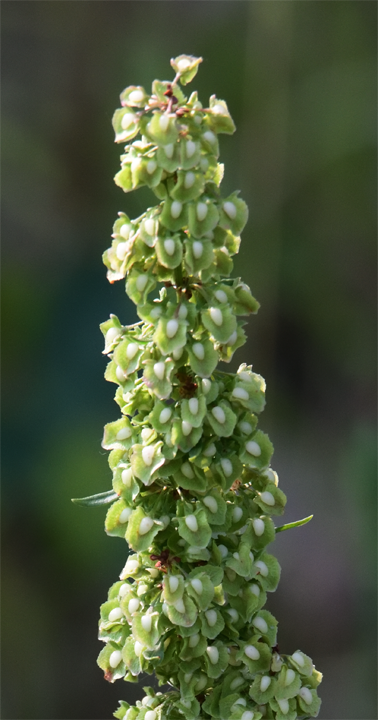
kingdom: Plantae
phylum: Tracheophyta
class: Magnoliopsida
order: Caryophyllales
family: Polygonaceae
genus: Rumex
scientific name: Rumex crispus
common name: Curled dock
